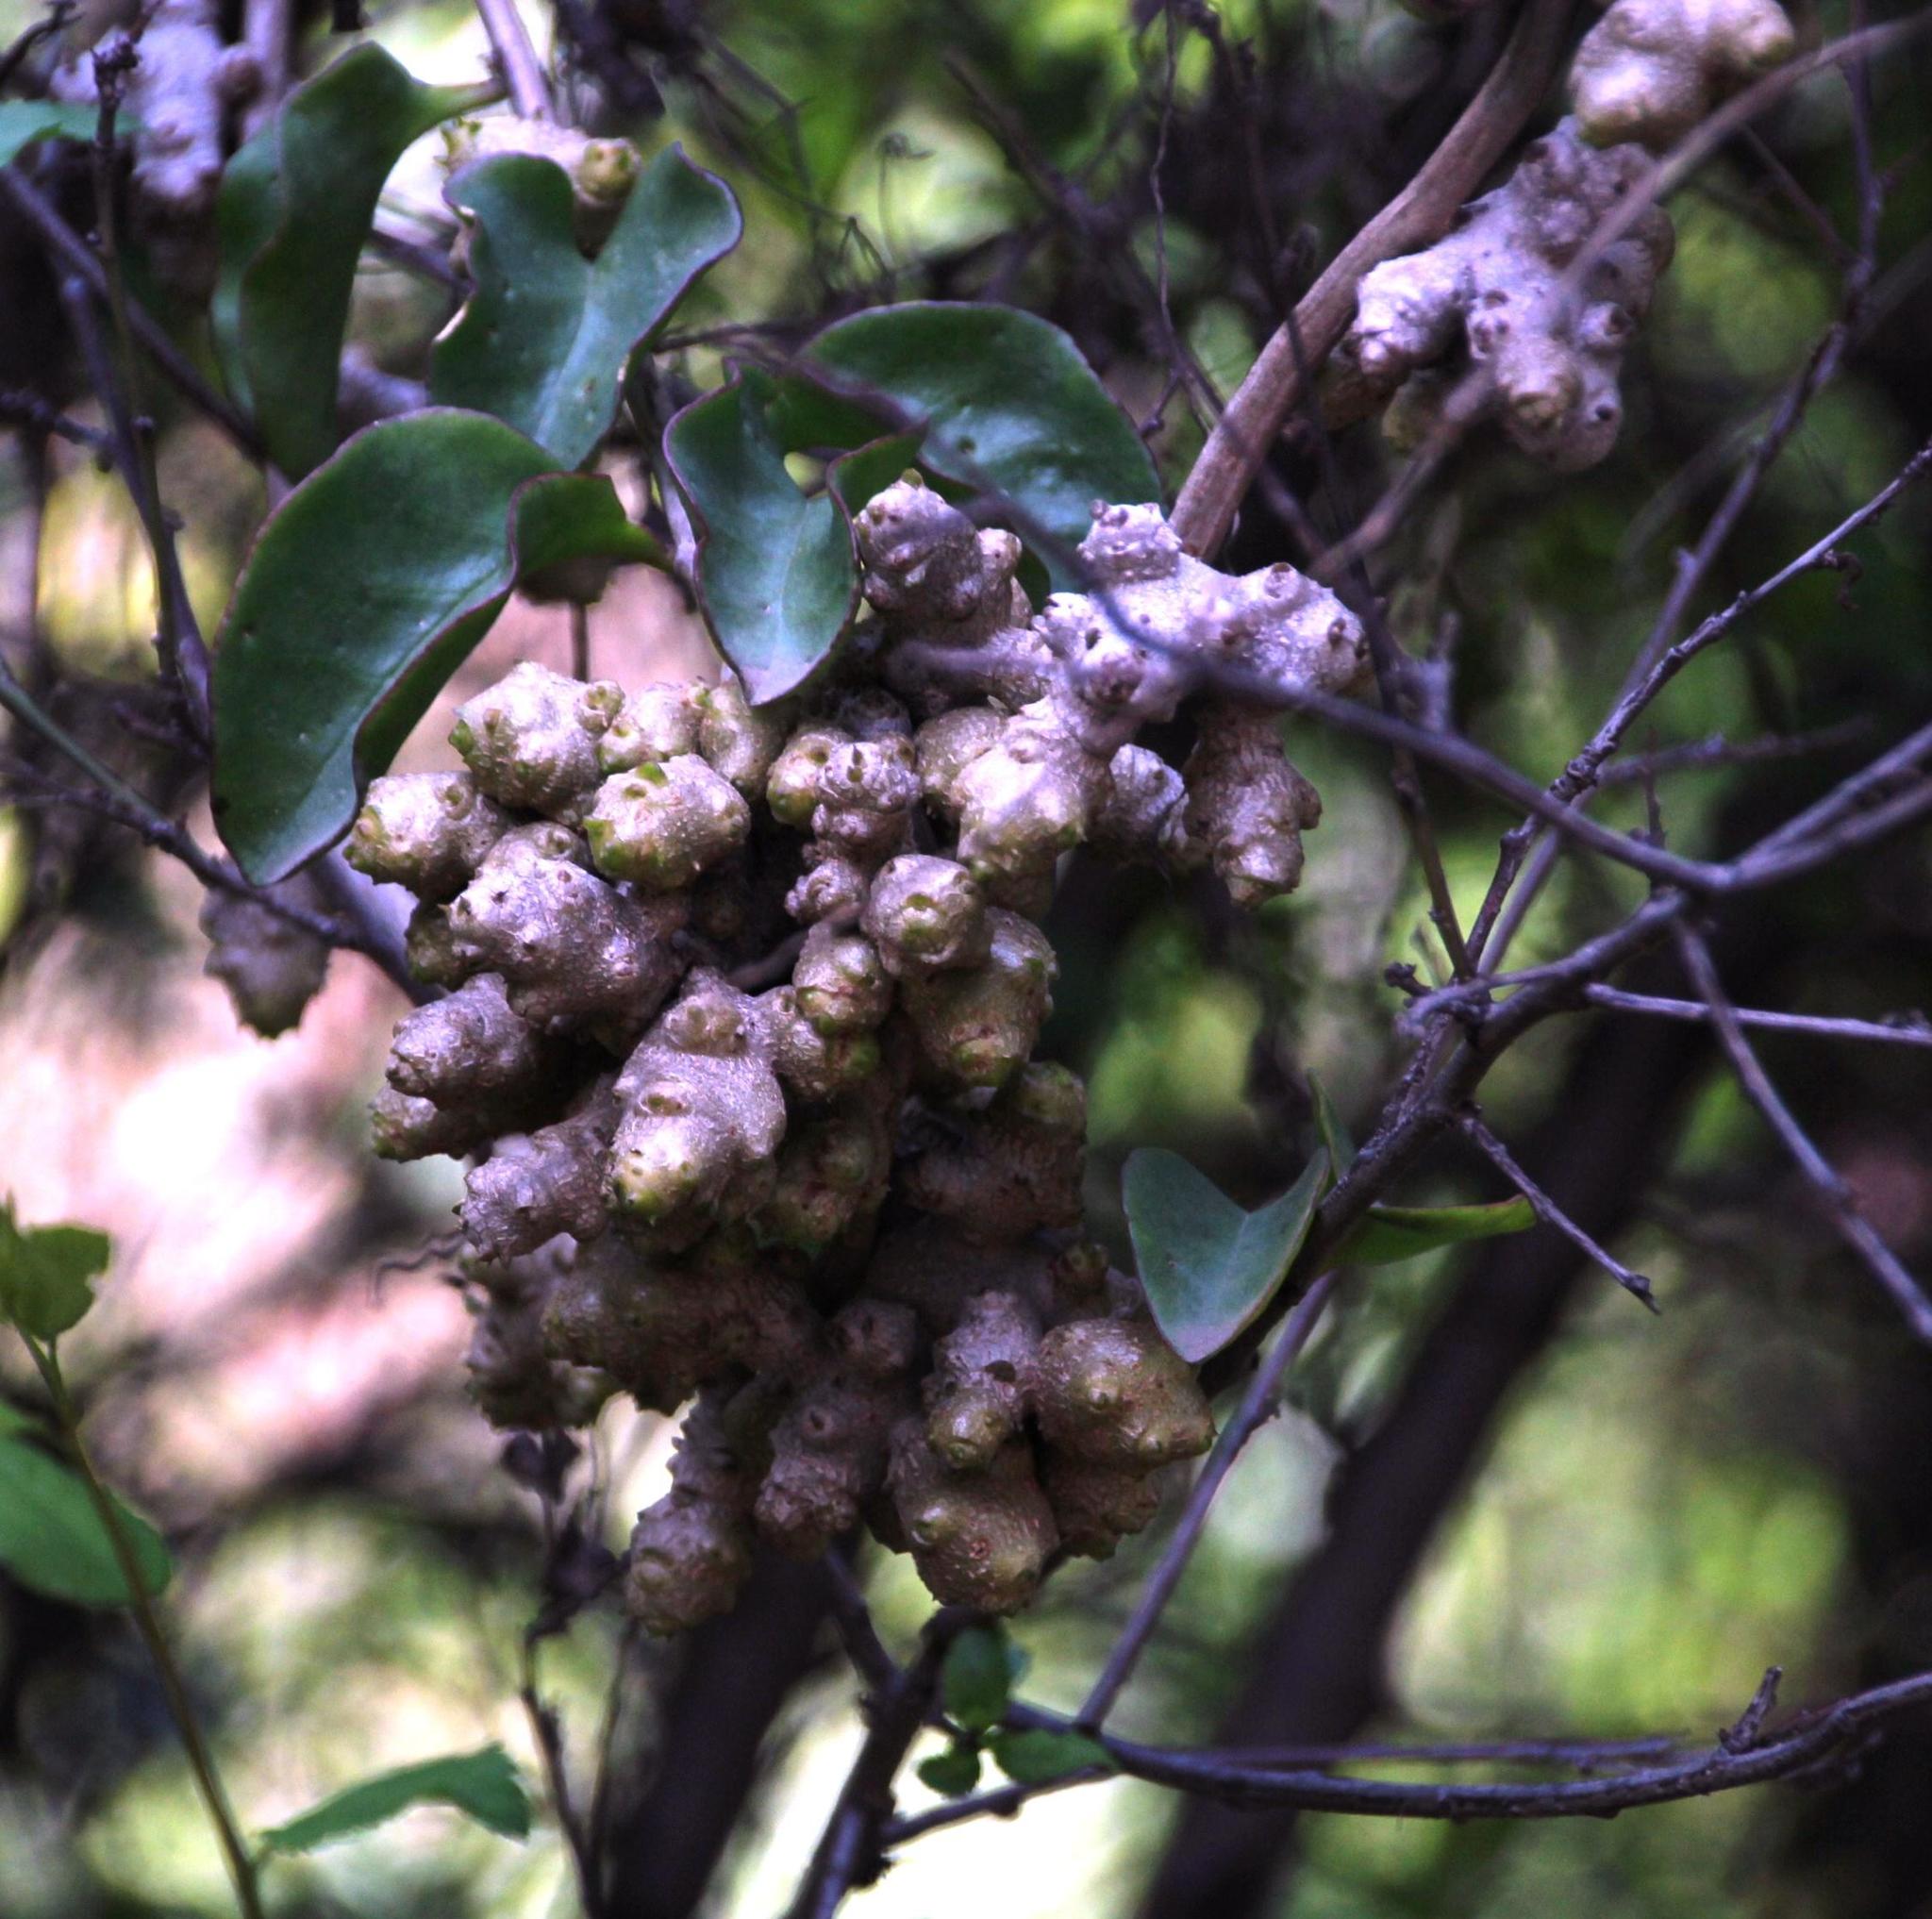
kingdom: Plantae
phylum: Tracheophyta
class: Magnoliopsida
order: Caryophyllales
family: Basellaceae
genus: Anredera
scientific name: Anredera cordifolia
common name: Heartleaf madeiravine
